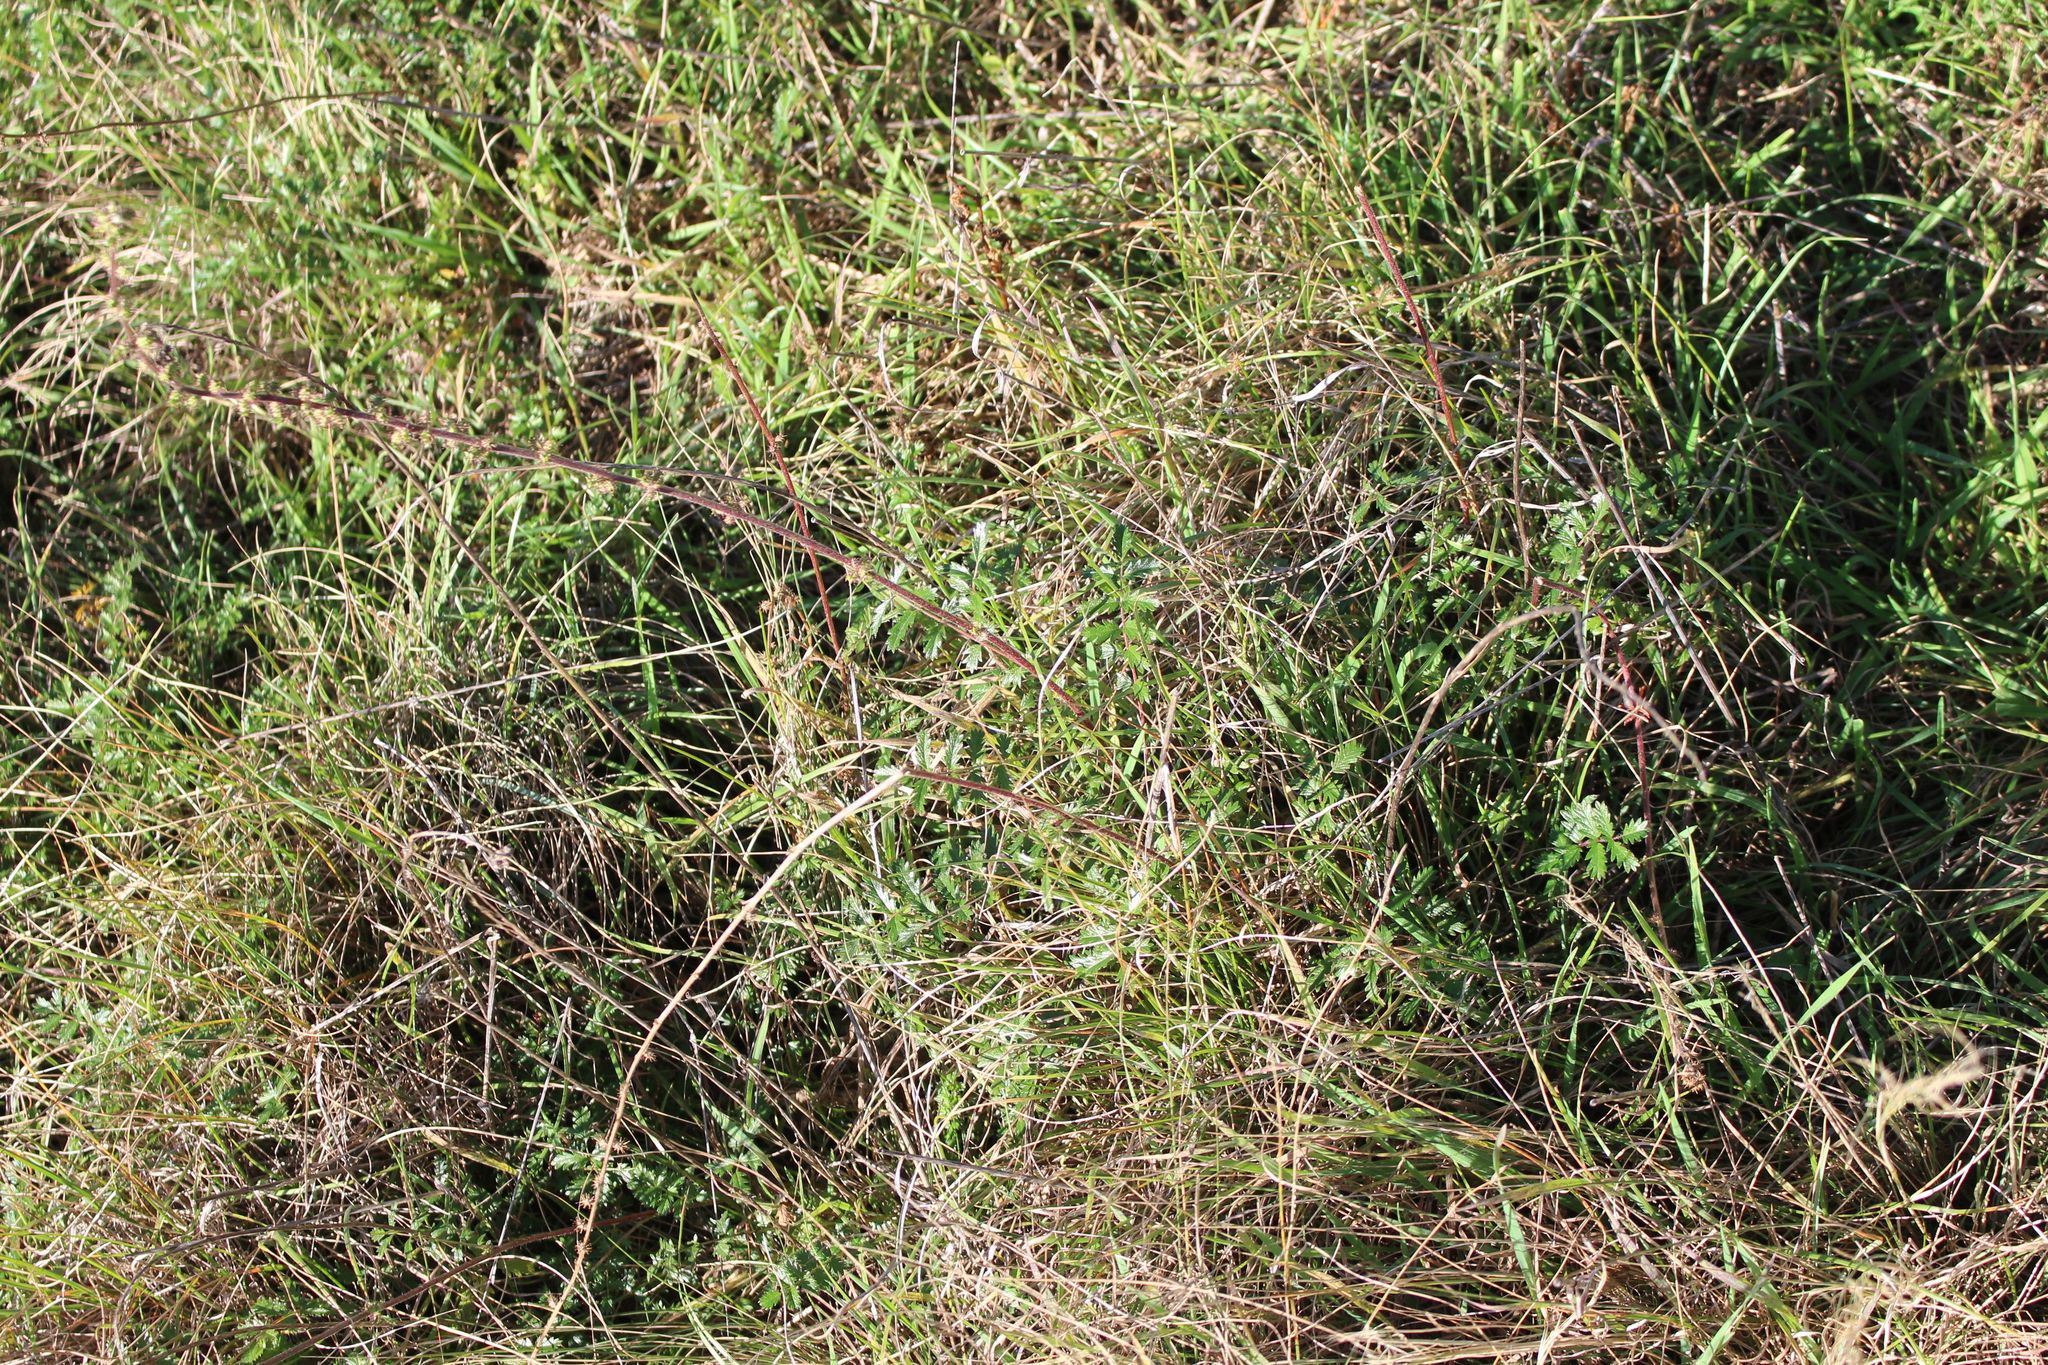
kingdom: Plantae
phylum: Tracheophyta
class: Magnoliopsida
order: Rosales
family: Rosaceae
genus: Acaena
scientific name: Acaena agnipila
